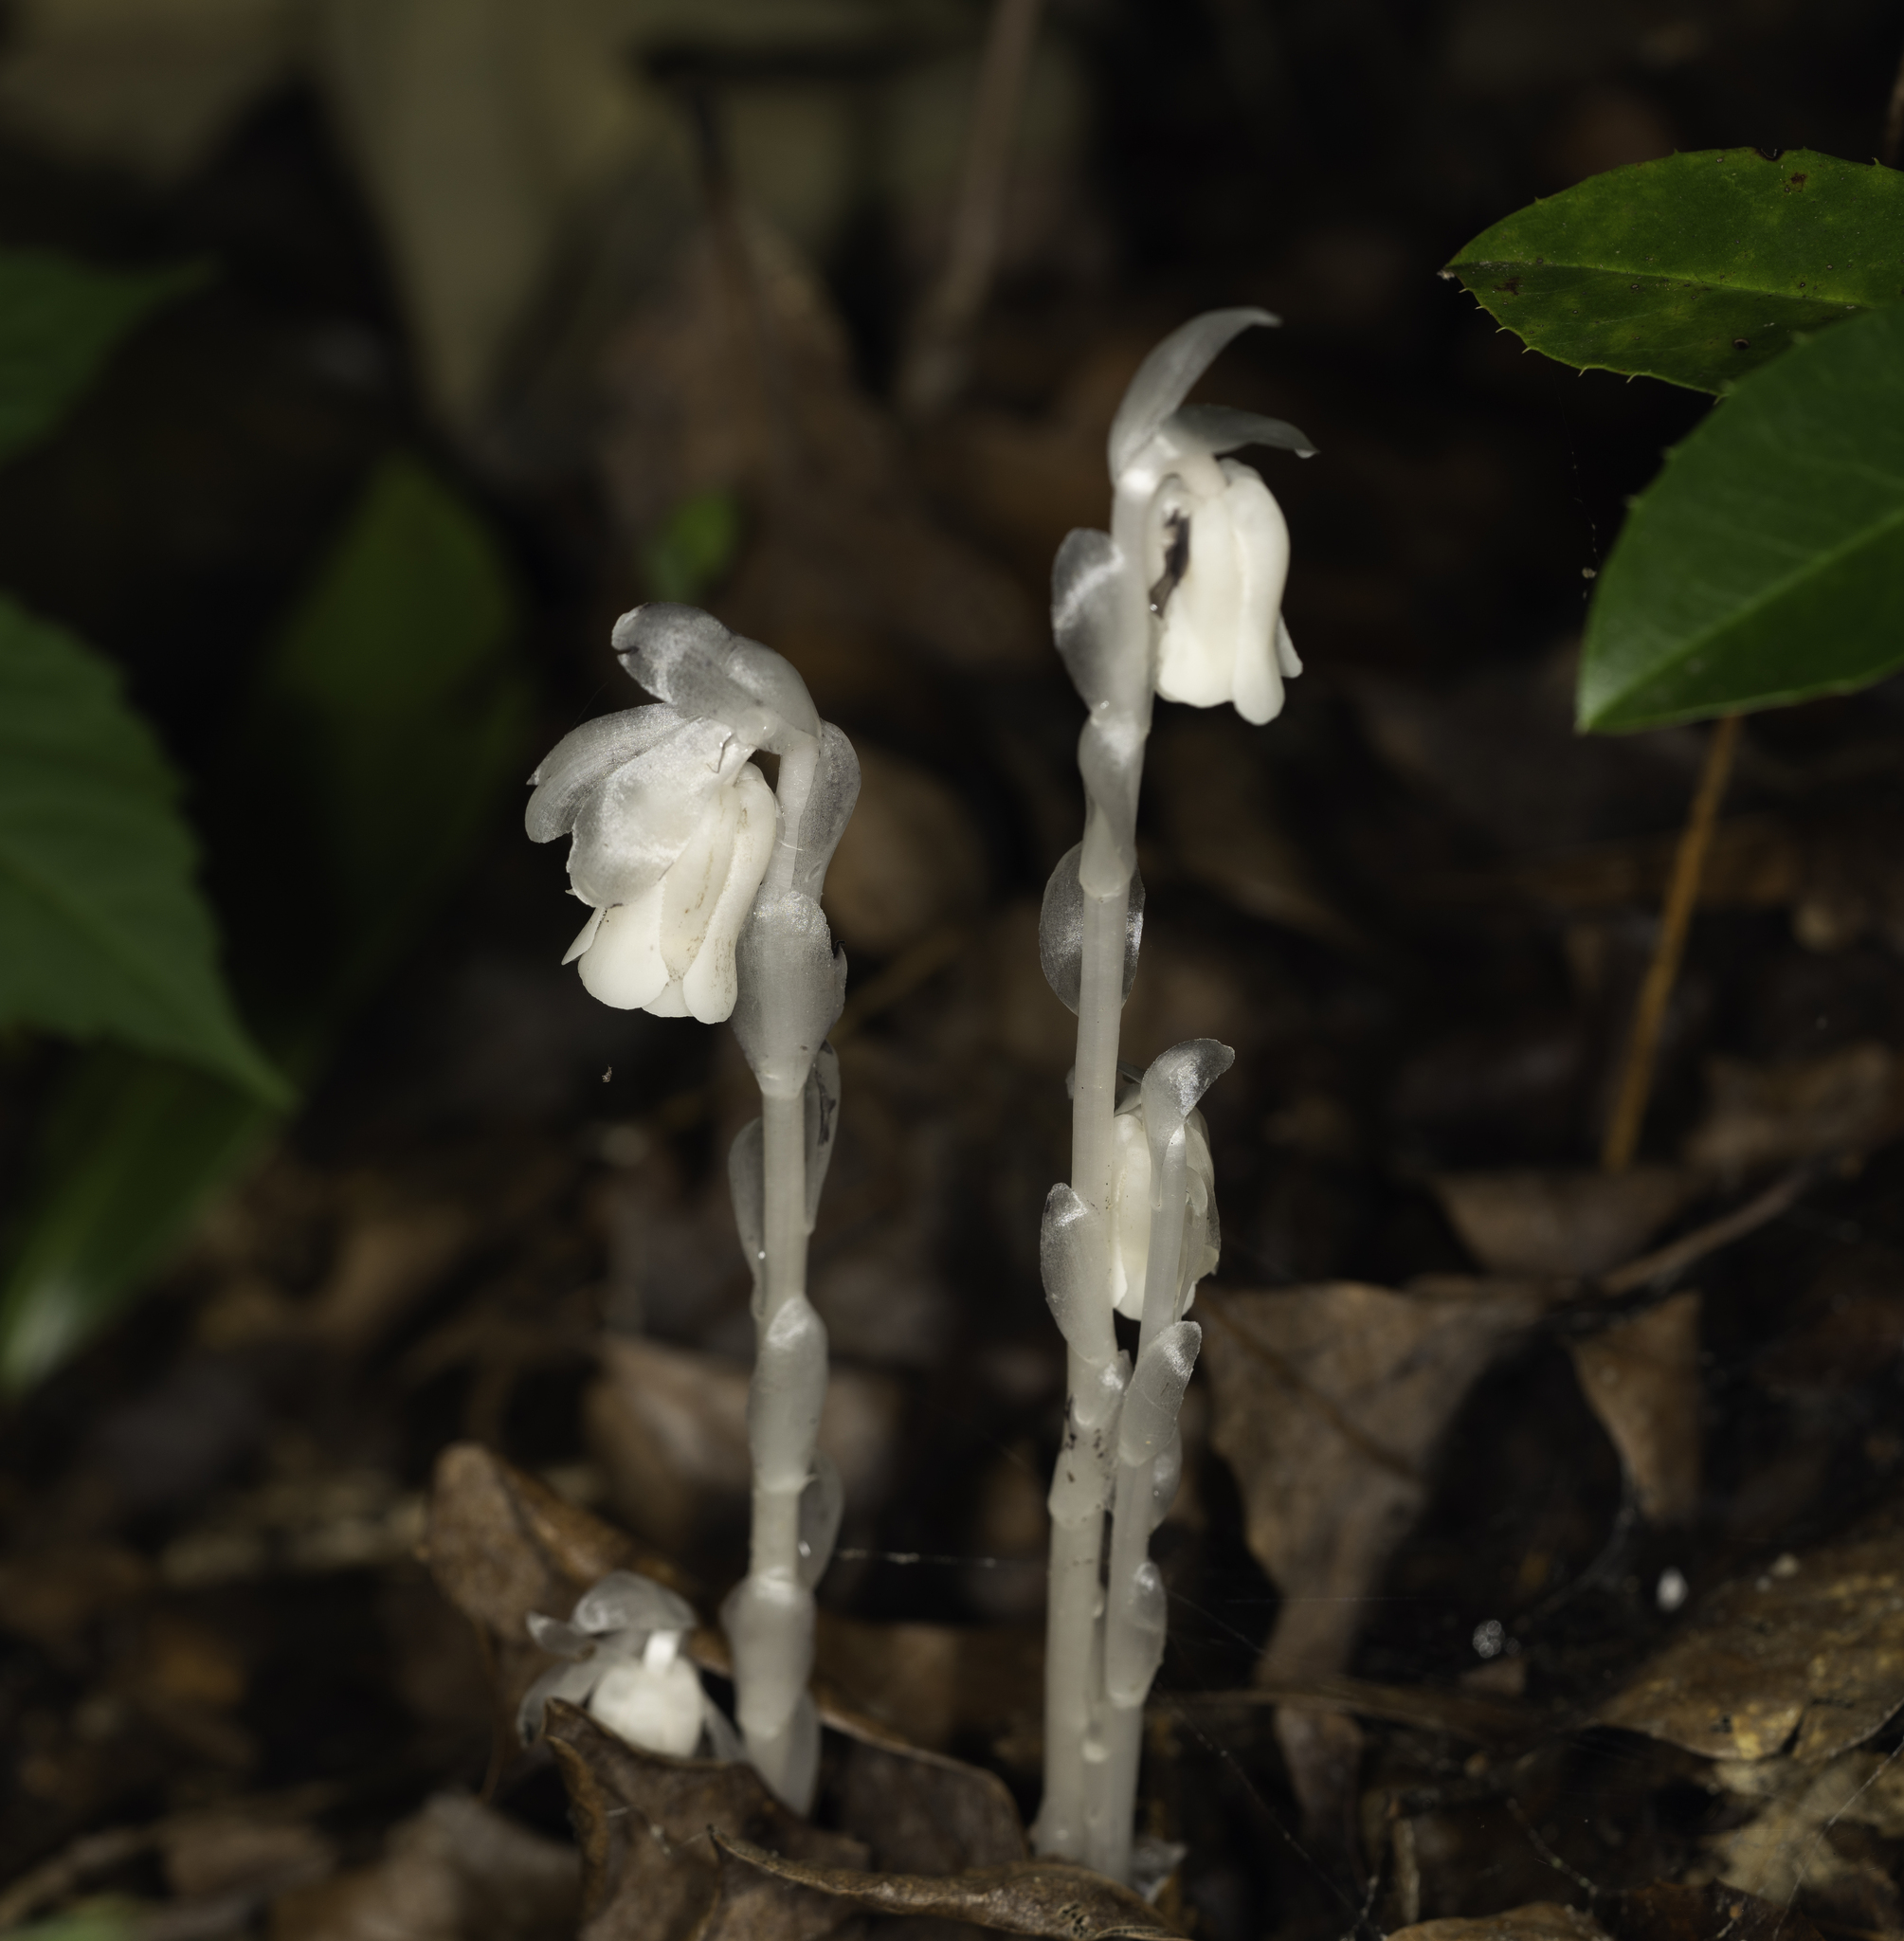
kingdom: Plantae
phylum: Tracheophyta
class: Magnoliopsida
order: Ericales
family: Ericaceae
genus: Monotropa
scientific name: Monotropa uniflora
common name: Convulsion root
